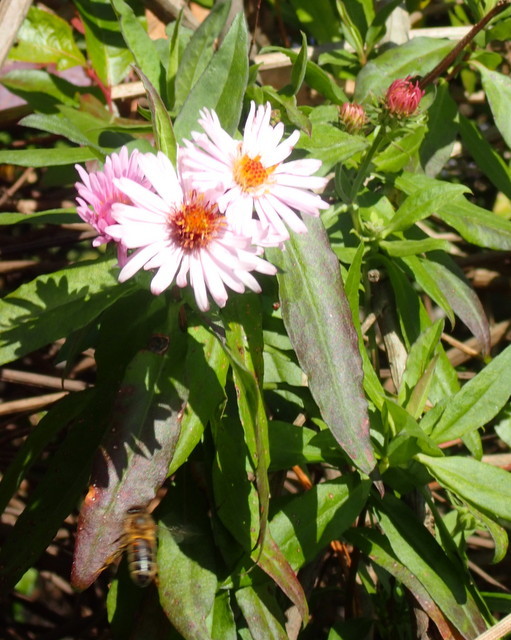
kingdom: Plantae
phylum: Tracheophyta
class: Magnoliopsida
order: Asterales
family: Asteraceae
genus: Ampelaster
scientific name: Ampelaster carolinianus
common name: Climbing aster
